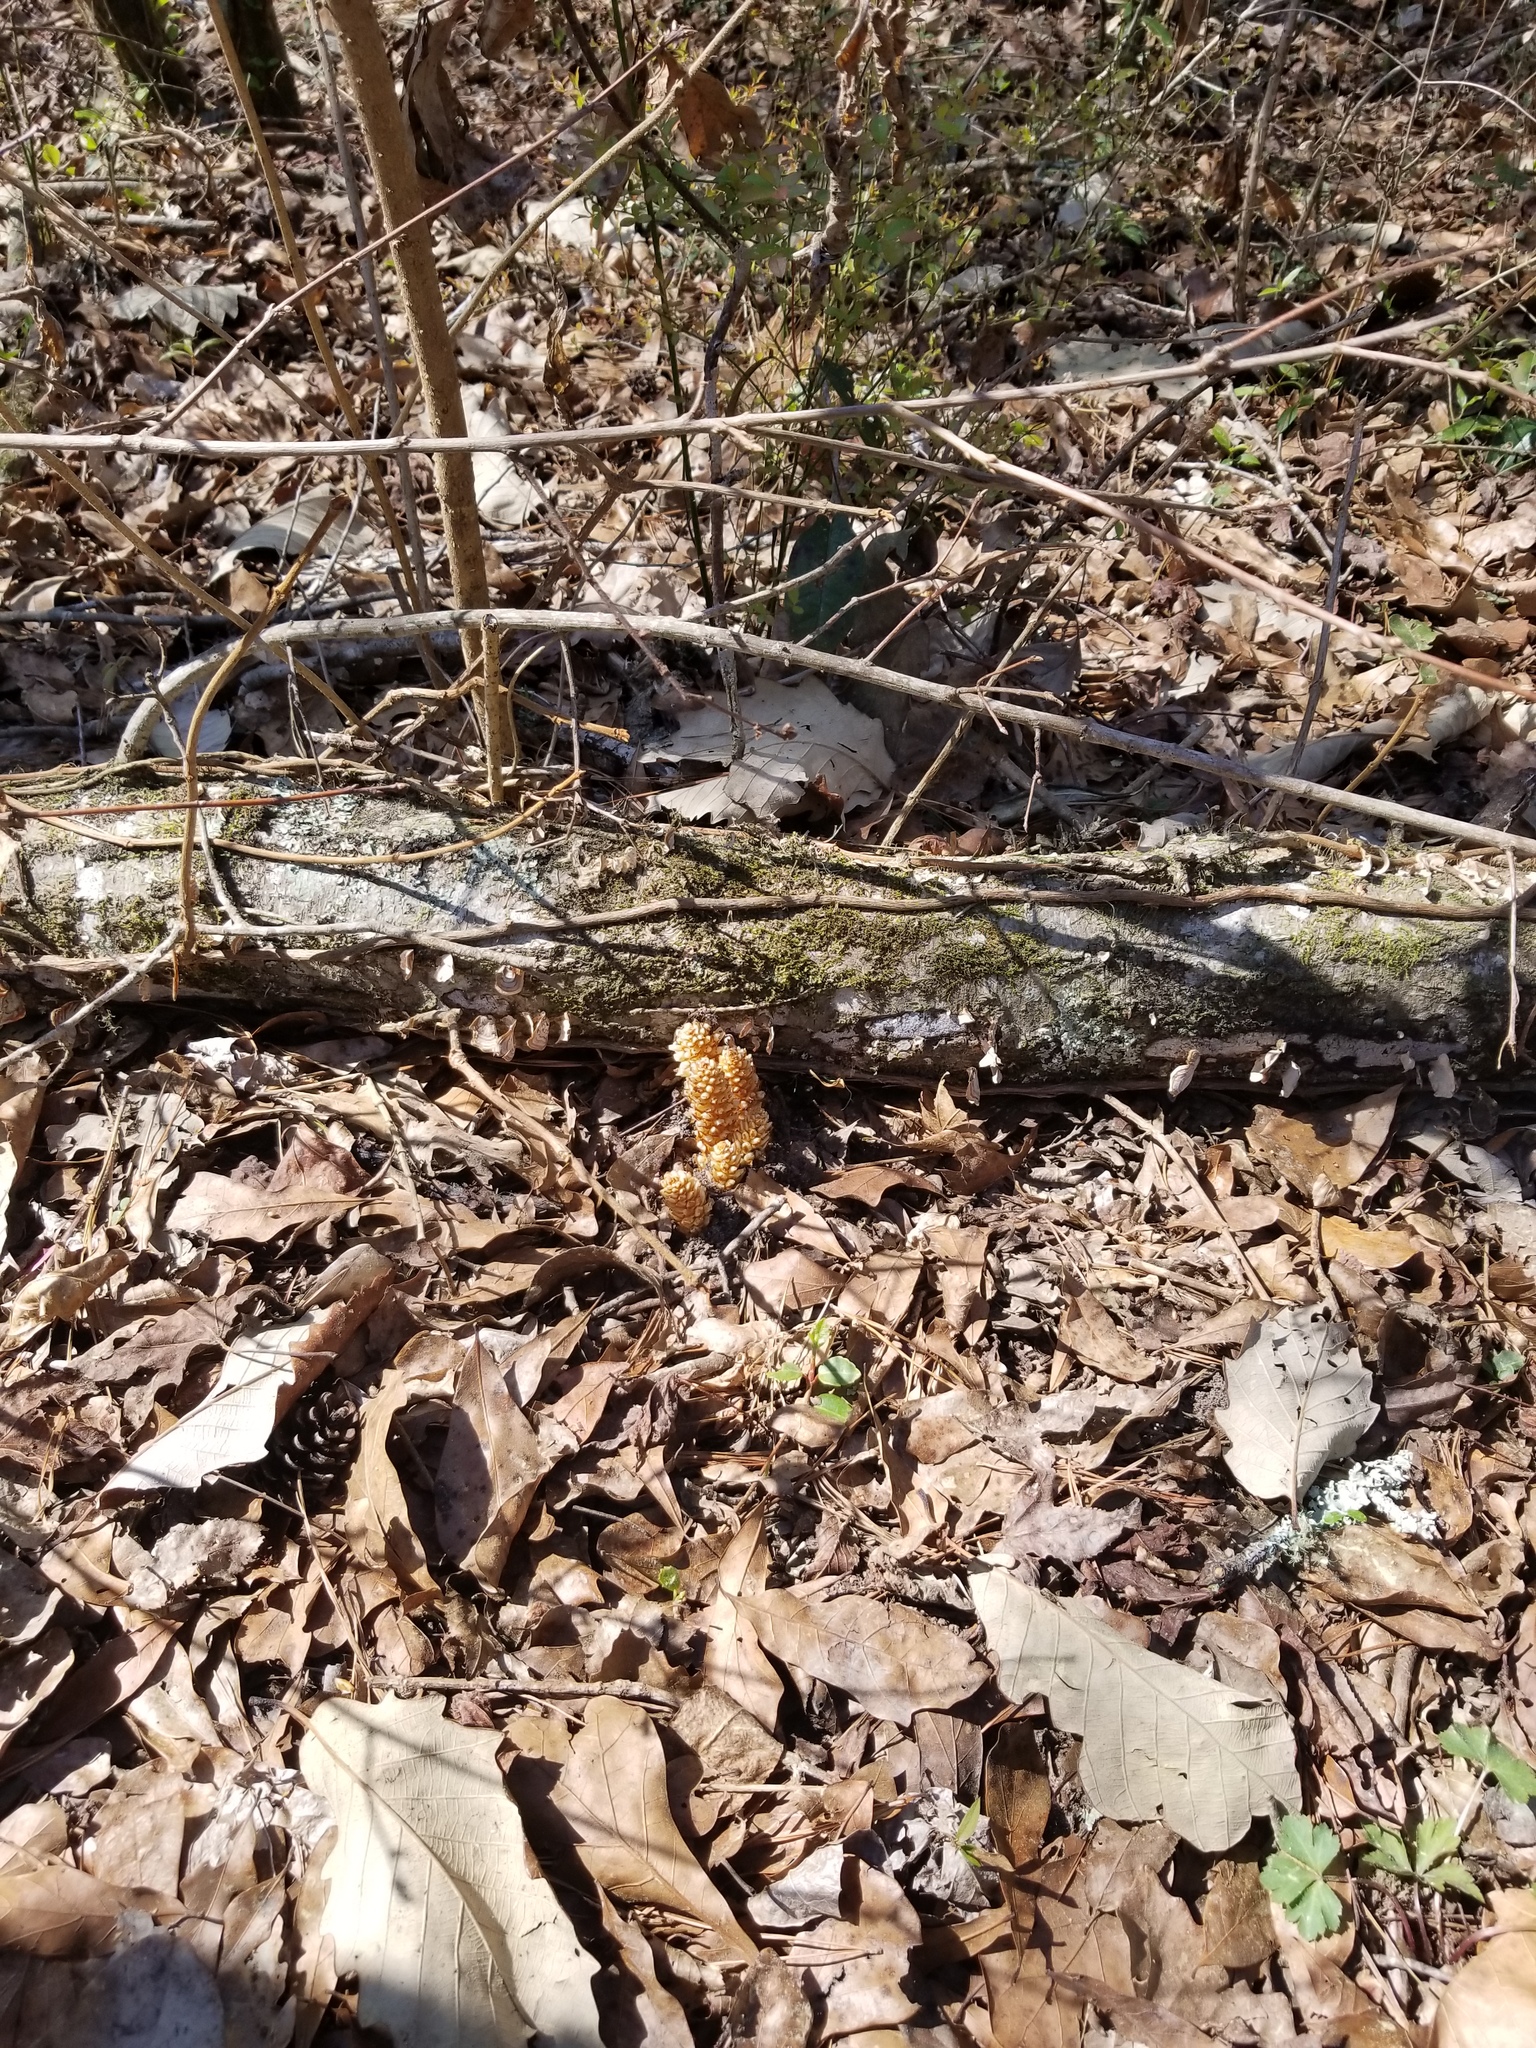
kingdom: Plantae
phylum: Tracheophyta
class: Magnoliopsida
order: Lamiales
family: Orobanchaceae
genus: Conopholis
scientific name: Conopholis americana
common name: American cancer-root
